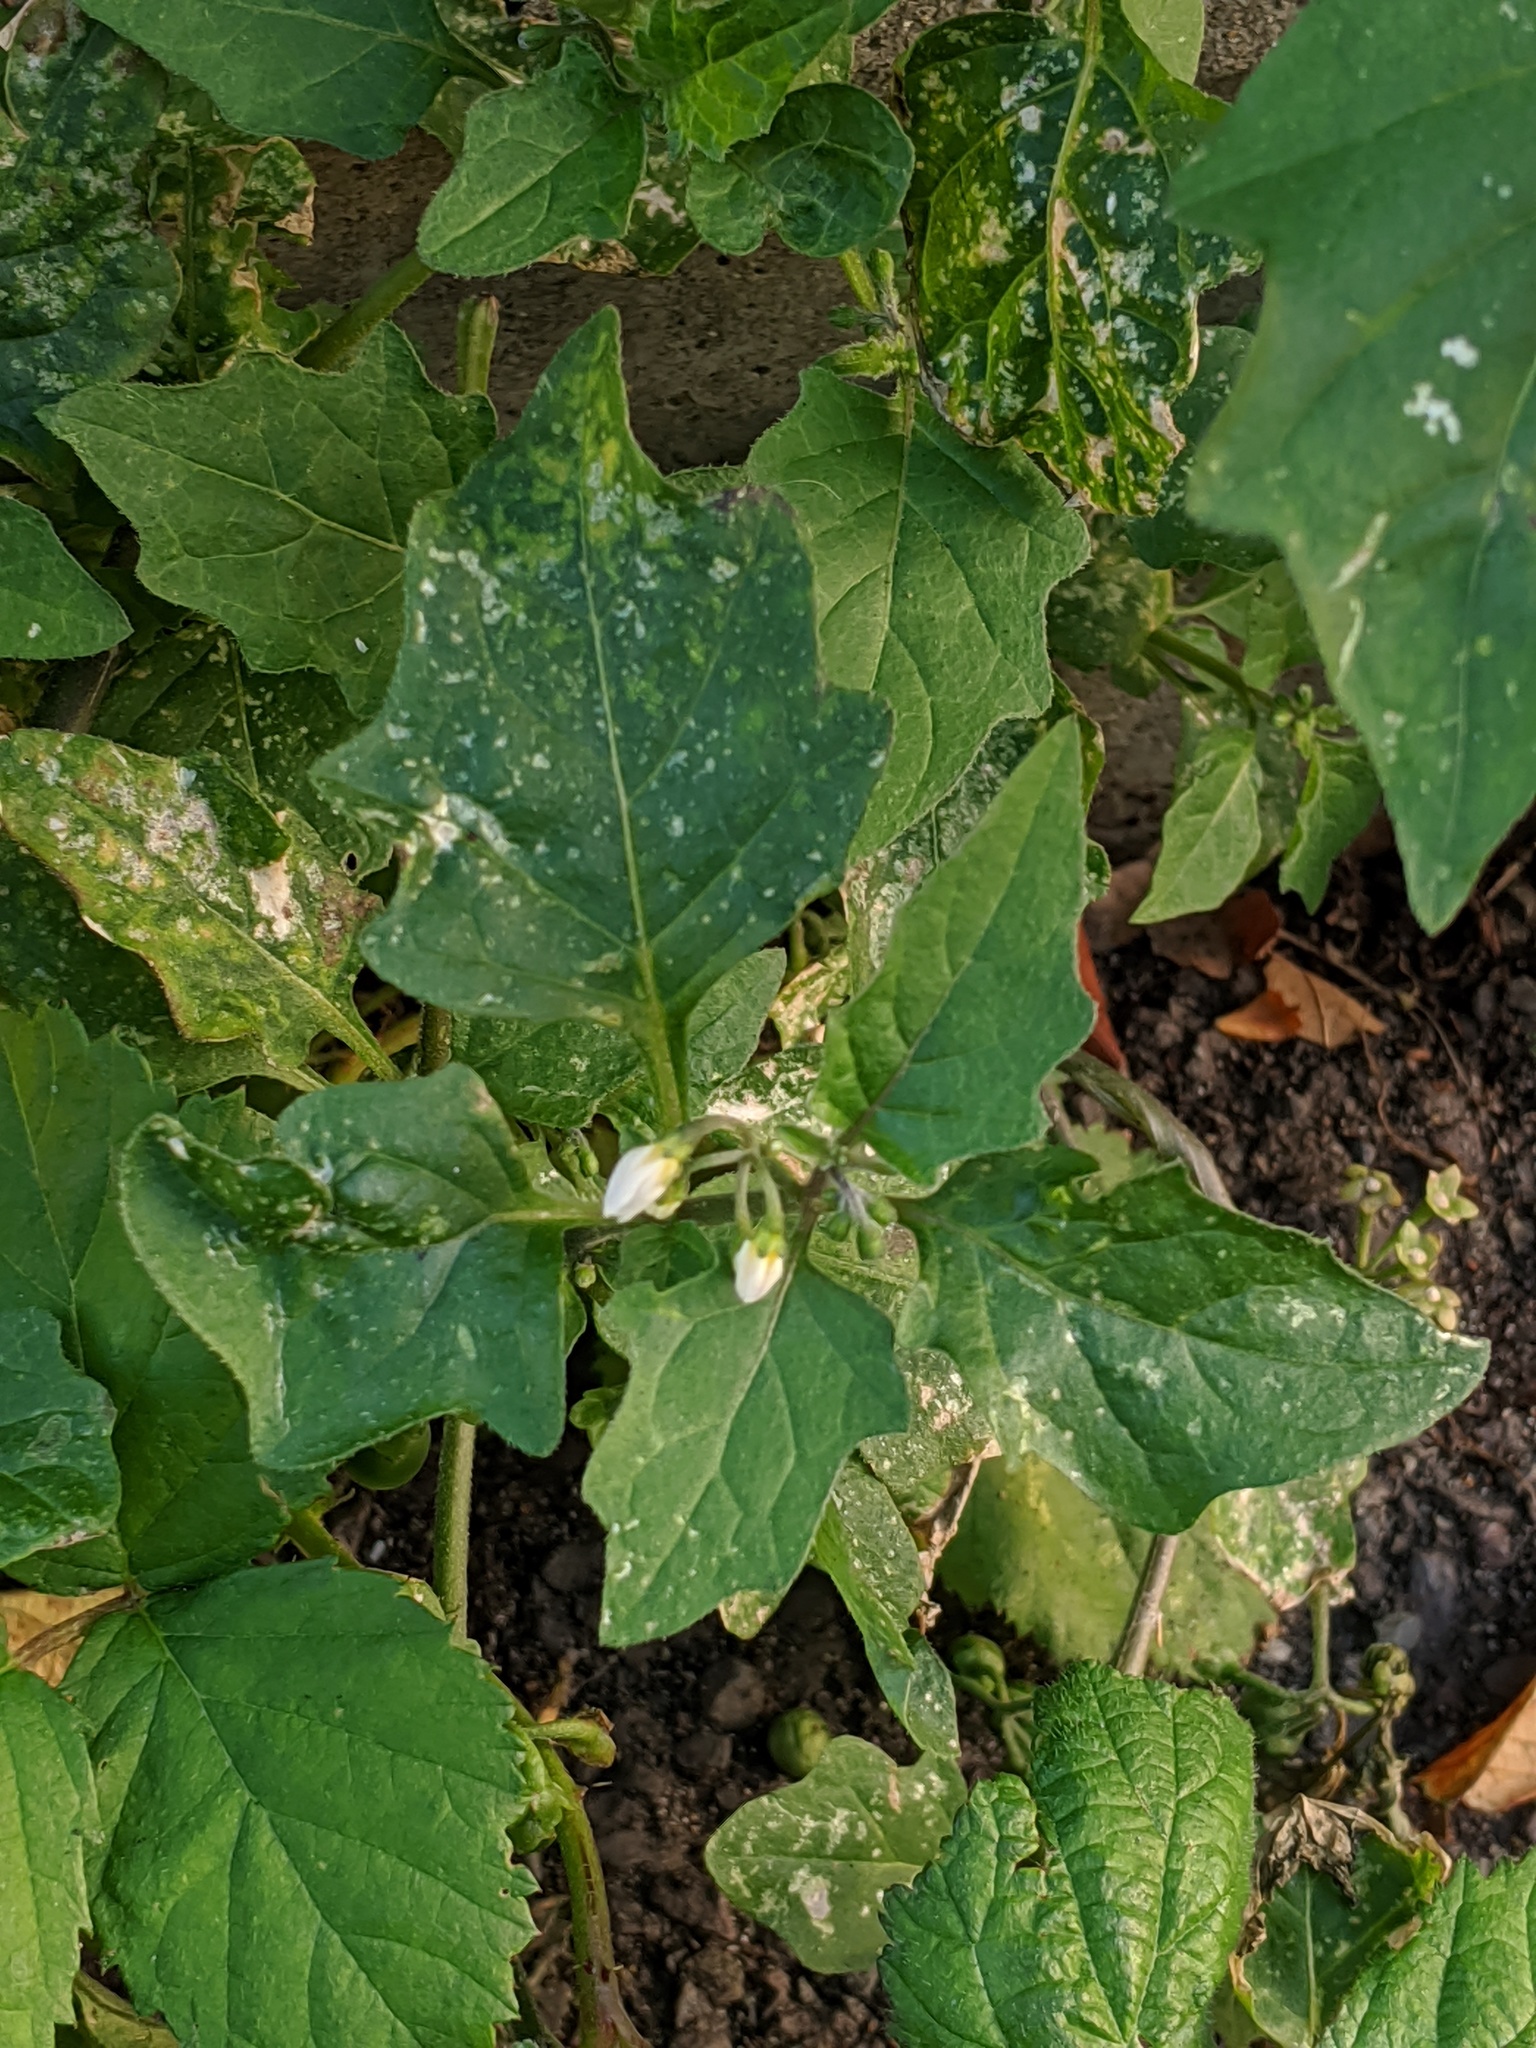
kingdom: Plantae
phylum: Tracheophyta
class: Magnoliopsida
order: Solanales
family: Solanaceae
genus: Solanum
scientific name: Solanum nigrum
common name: Black nightshade
